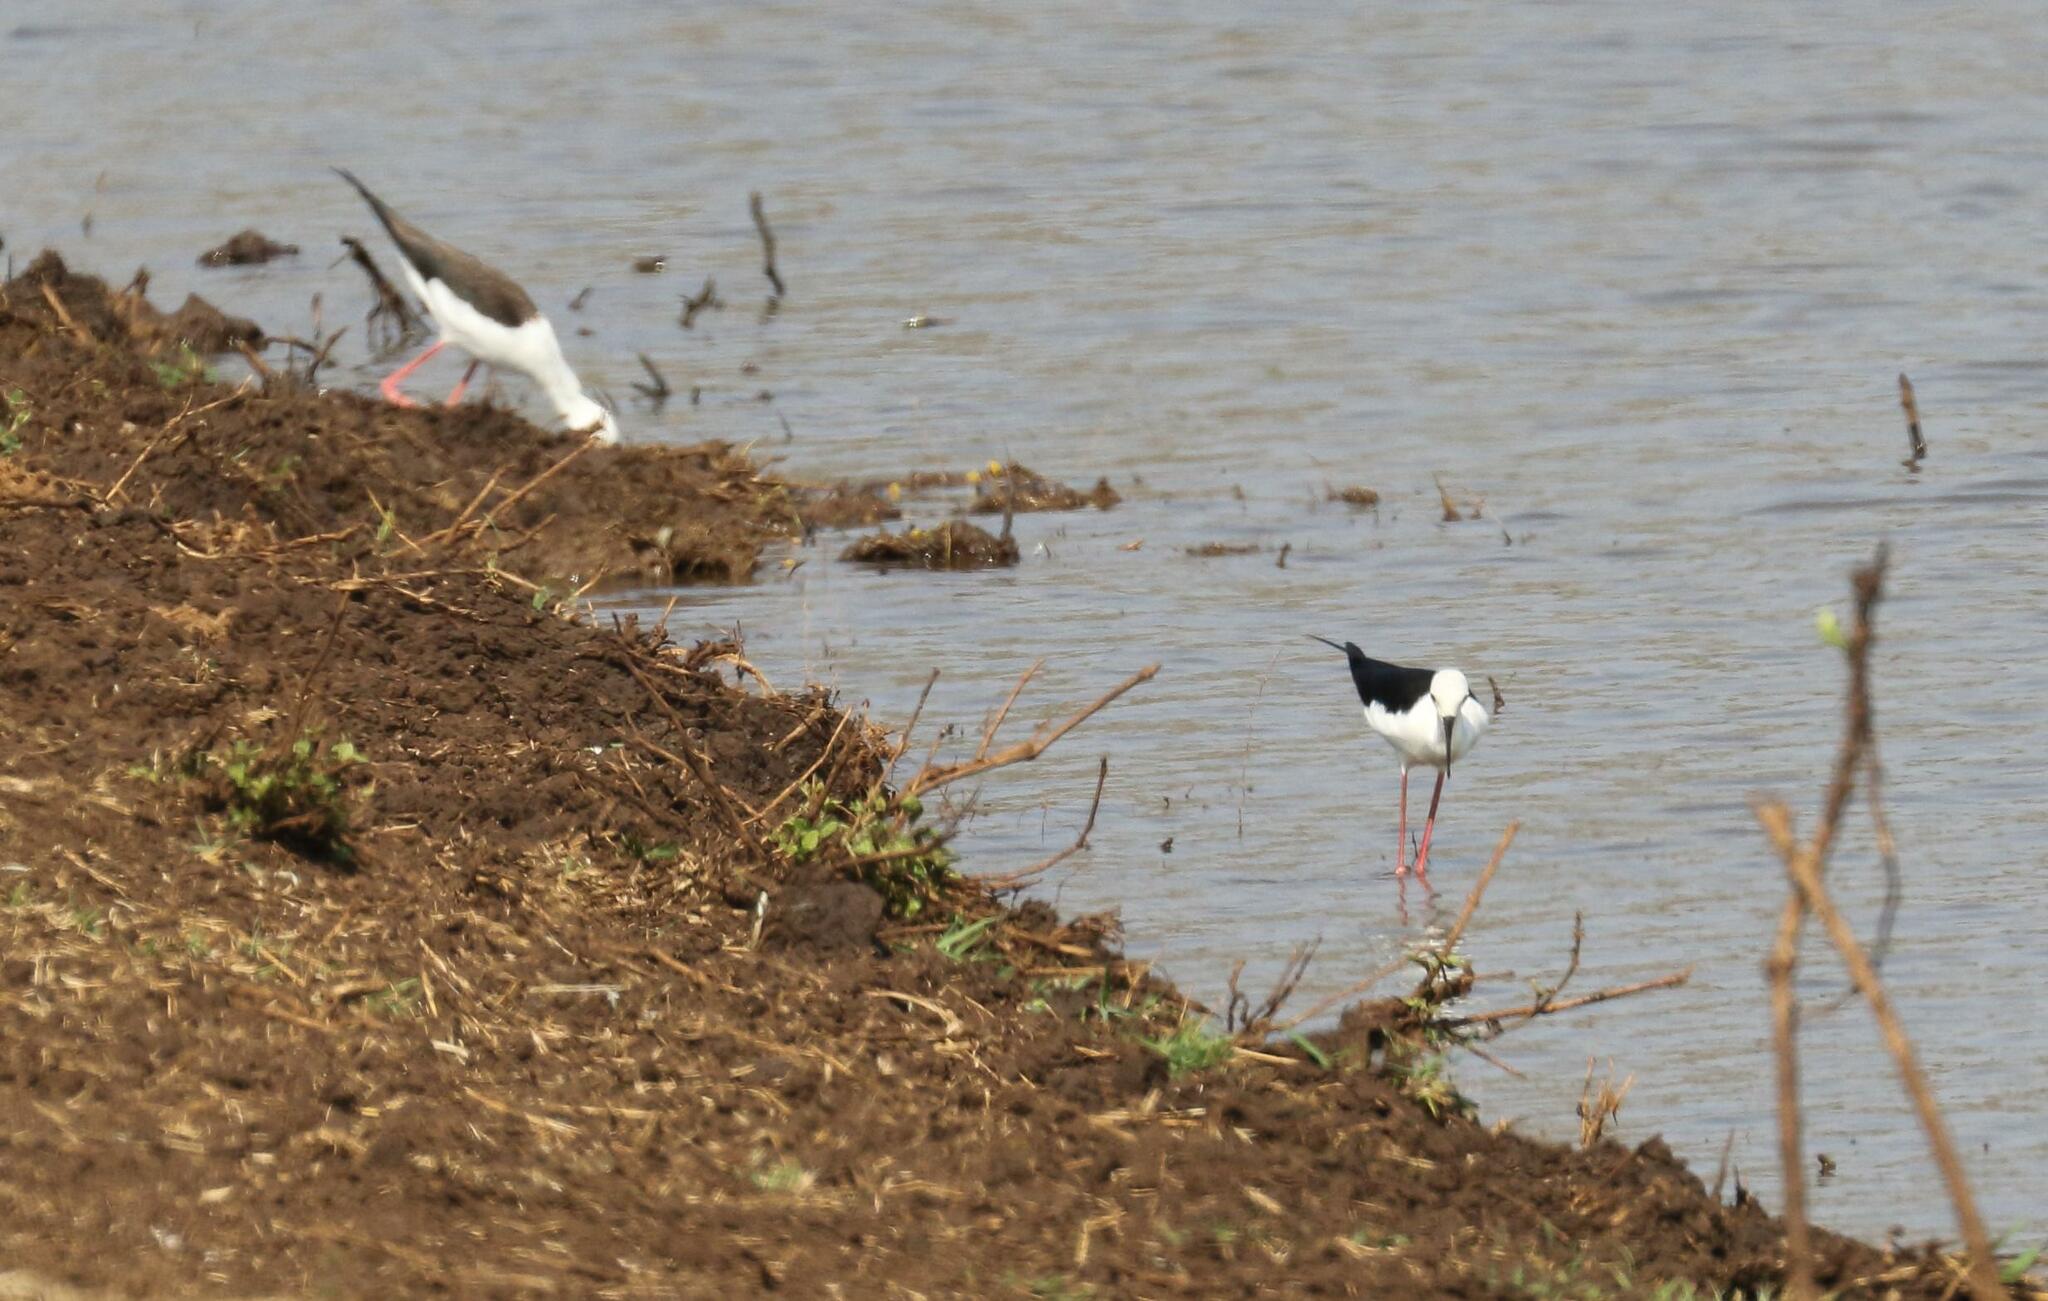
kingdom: Animalia
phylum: Chordata
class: Aves
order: Charadriiformes
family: Recurvirostridae
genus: Himantopus
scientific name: Himantopus himantopus
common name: Black-winged stilt
